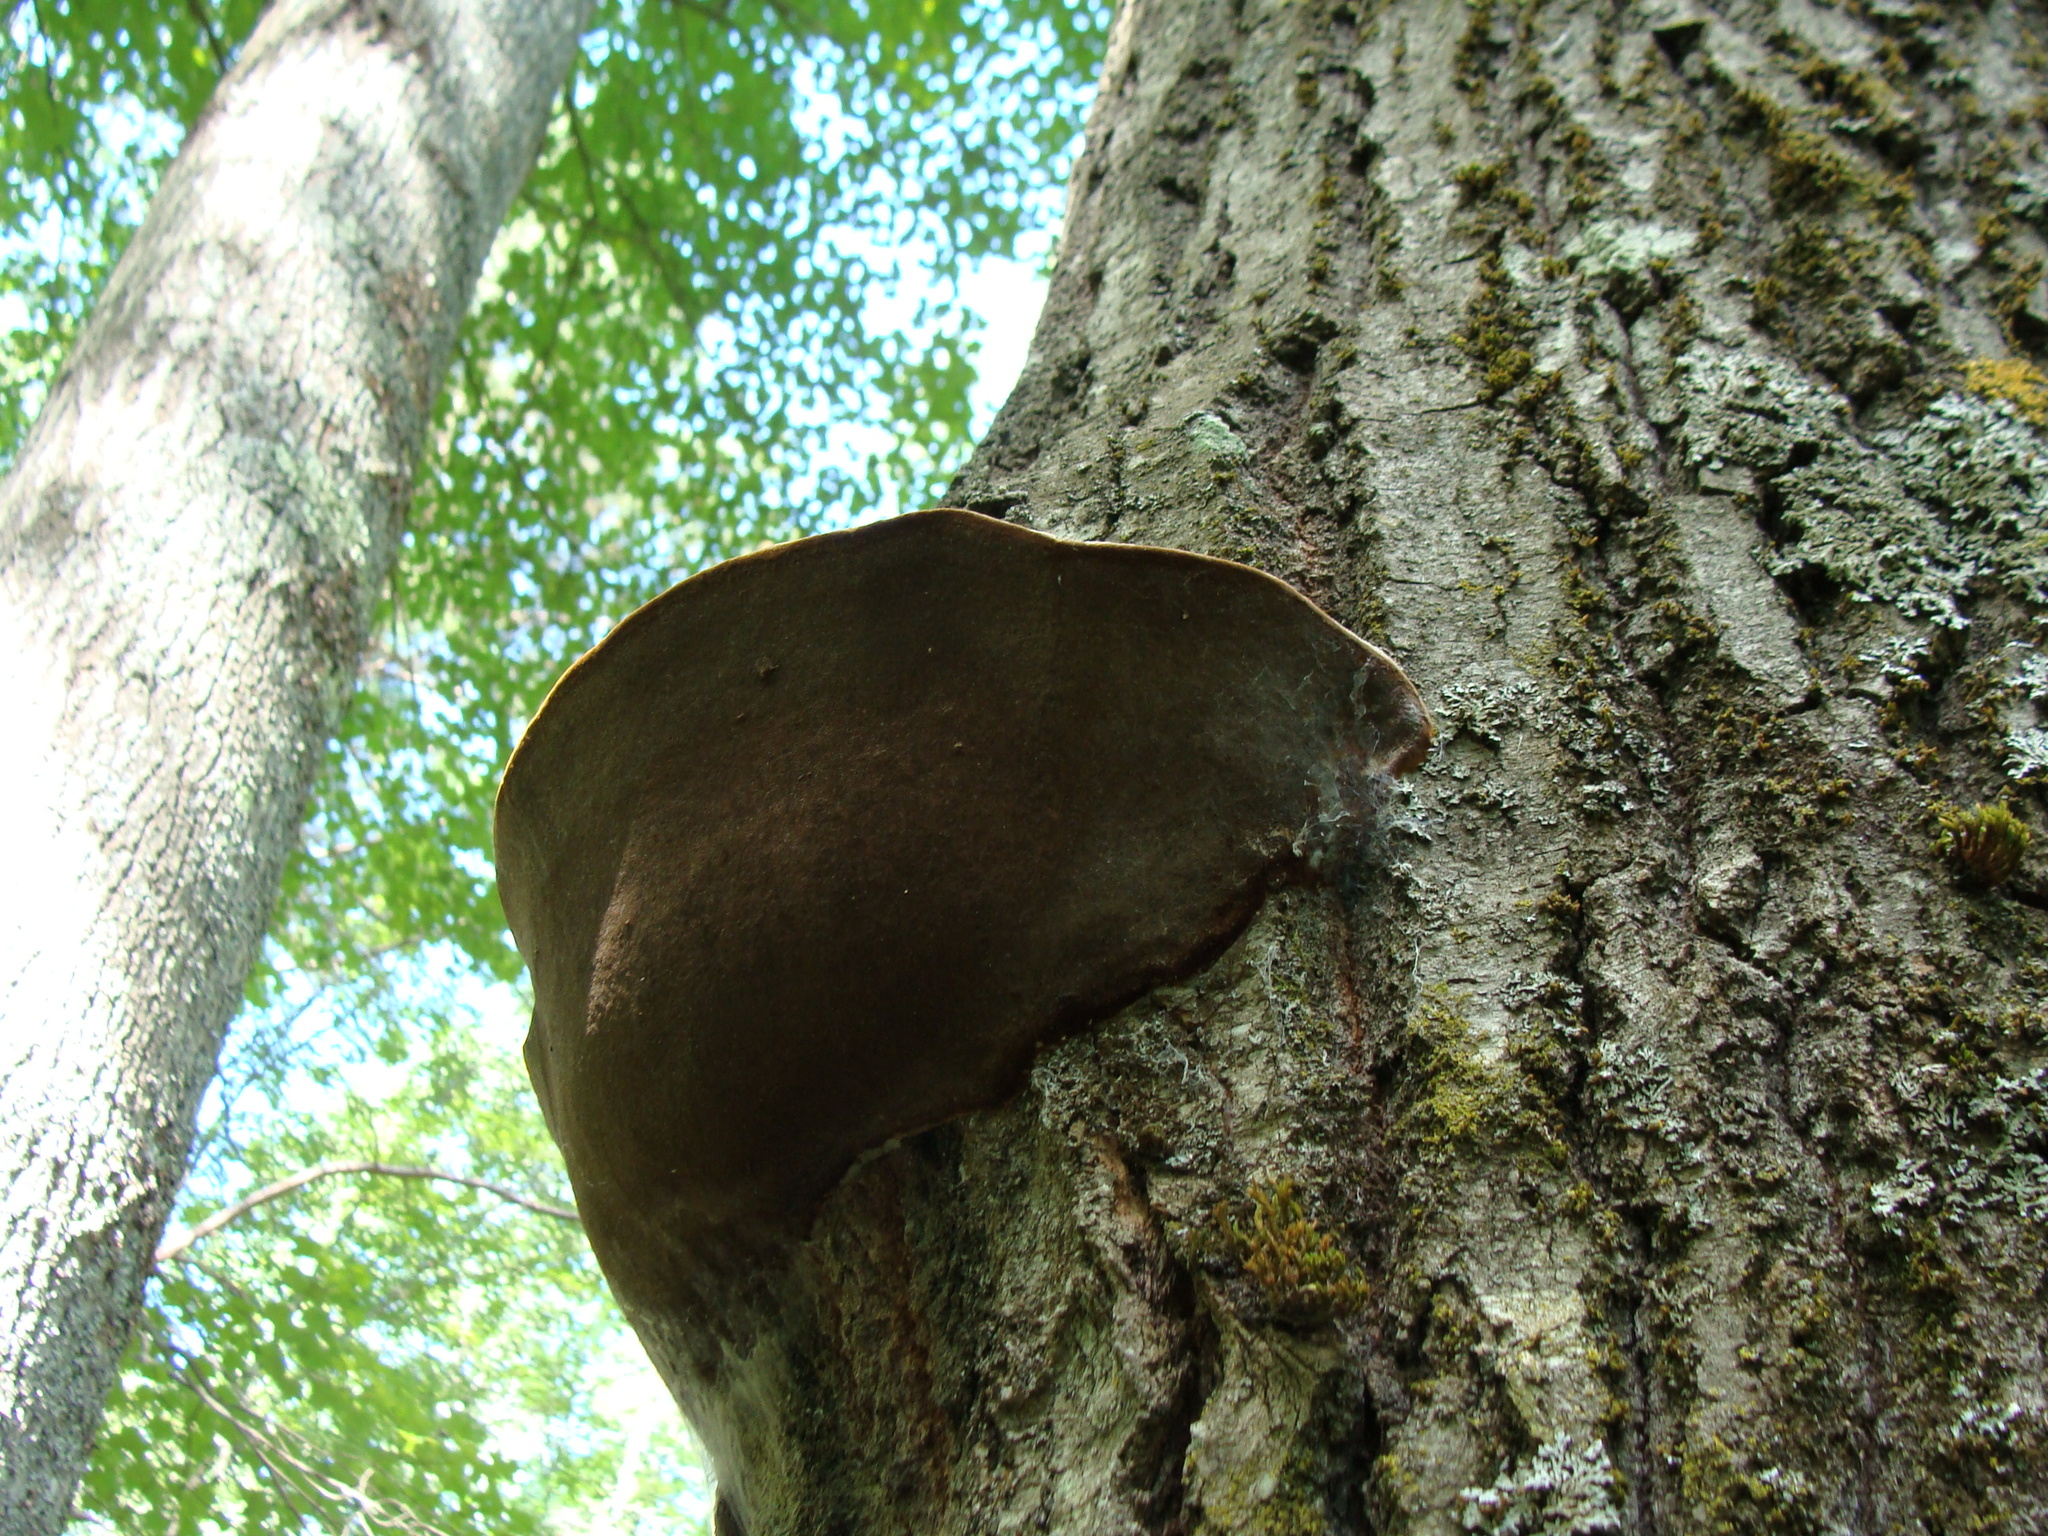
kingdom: Fungi
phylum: Basidiomycota
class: Agaricomycetes
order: Hymenochaetales
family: Hymenochaetaceae
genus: Phellinus
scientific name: Phellinus tremulae
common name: Aspen bracket
